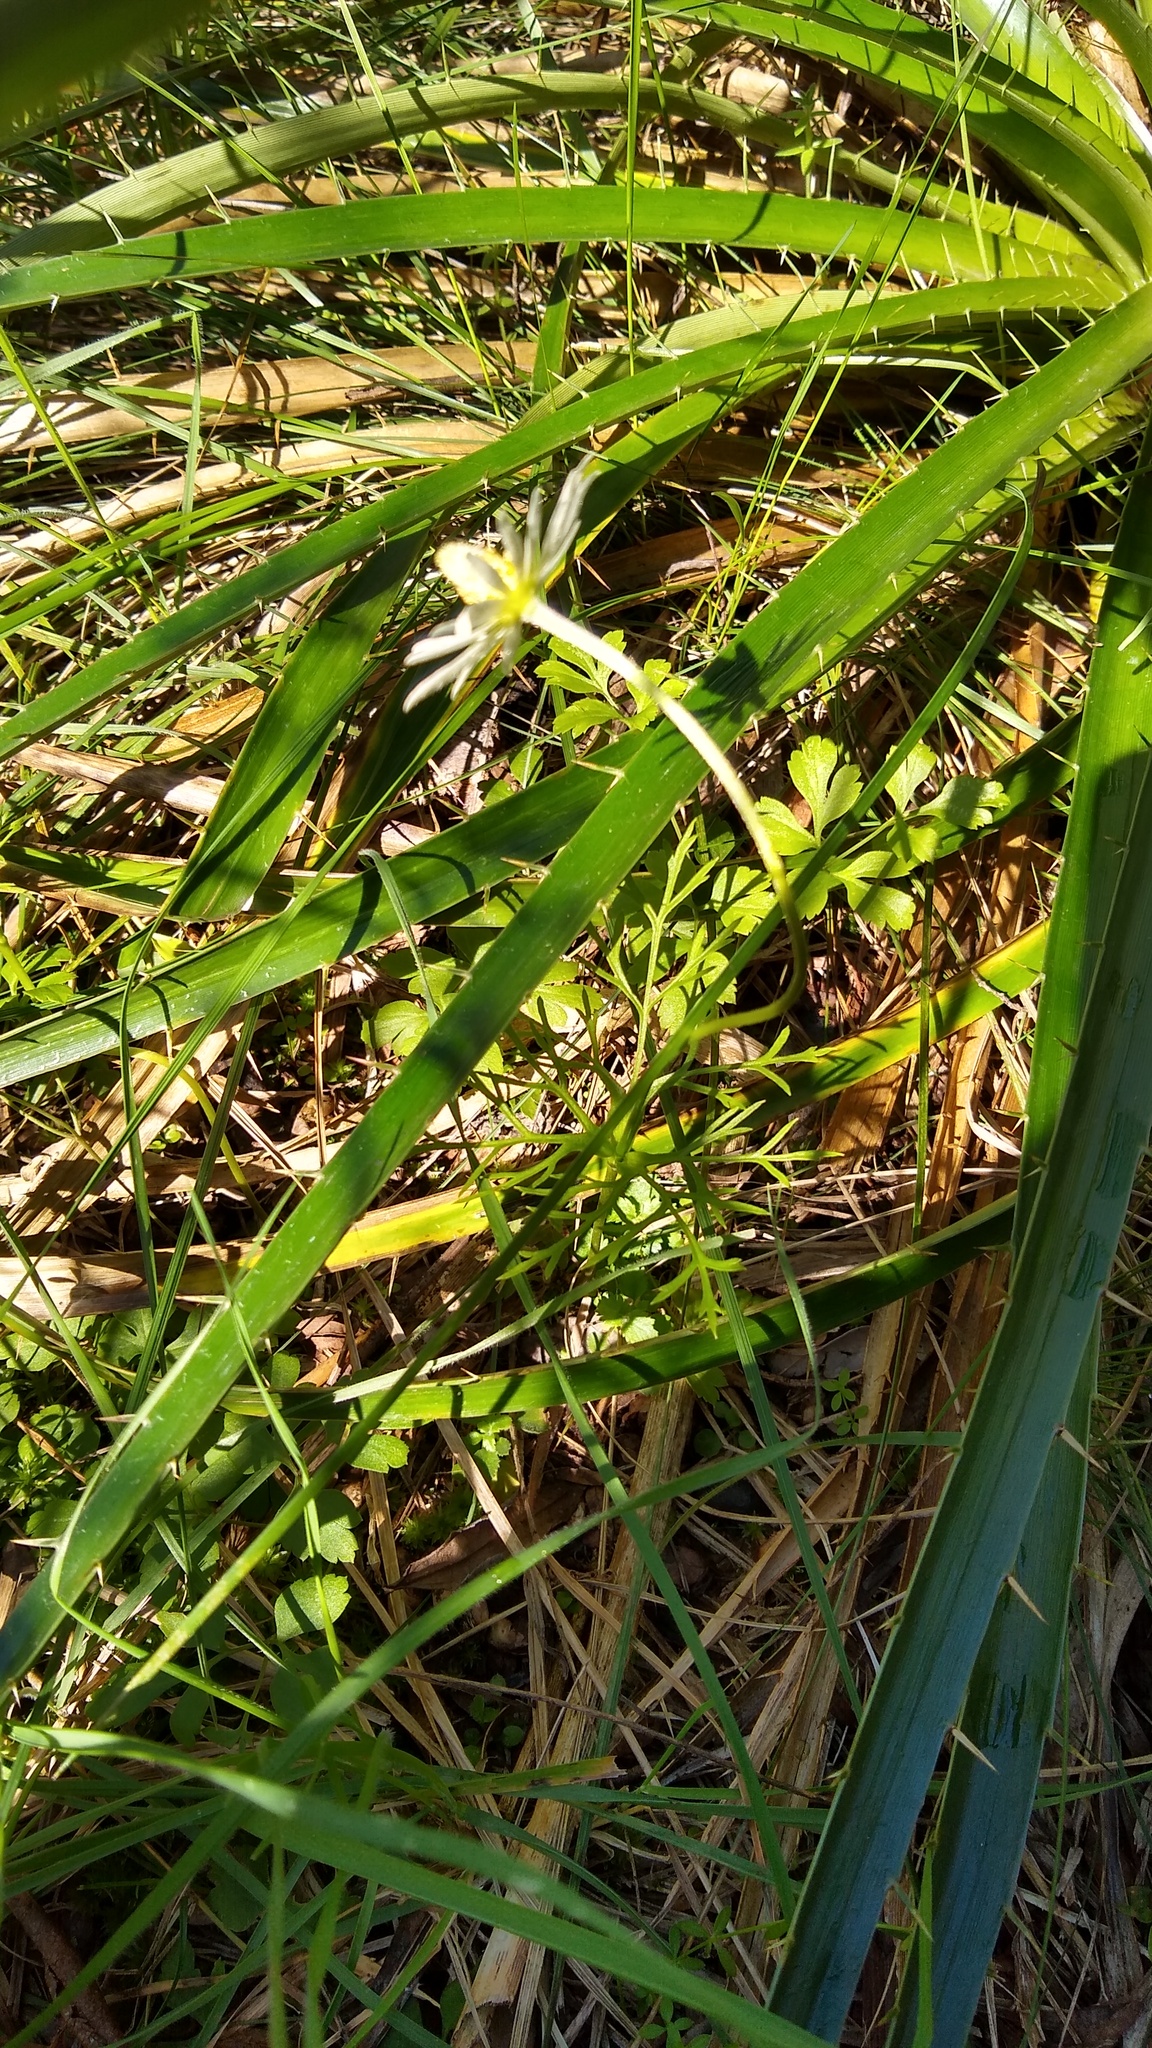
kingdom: Plantae
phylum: Tracheophyta
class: Magnoliopsida
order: Ranunculales
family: Ranunculaceae
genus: Anemone
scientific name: Anemone decapetala
